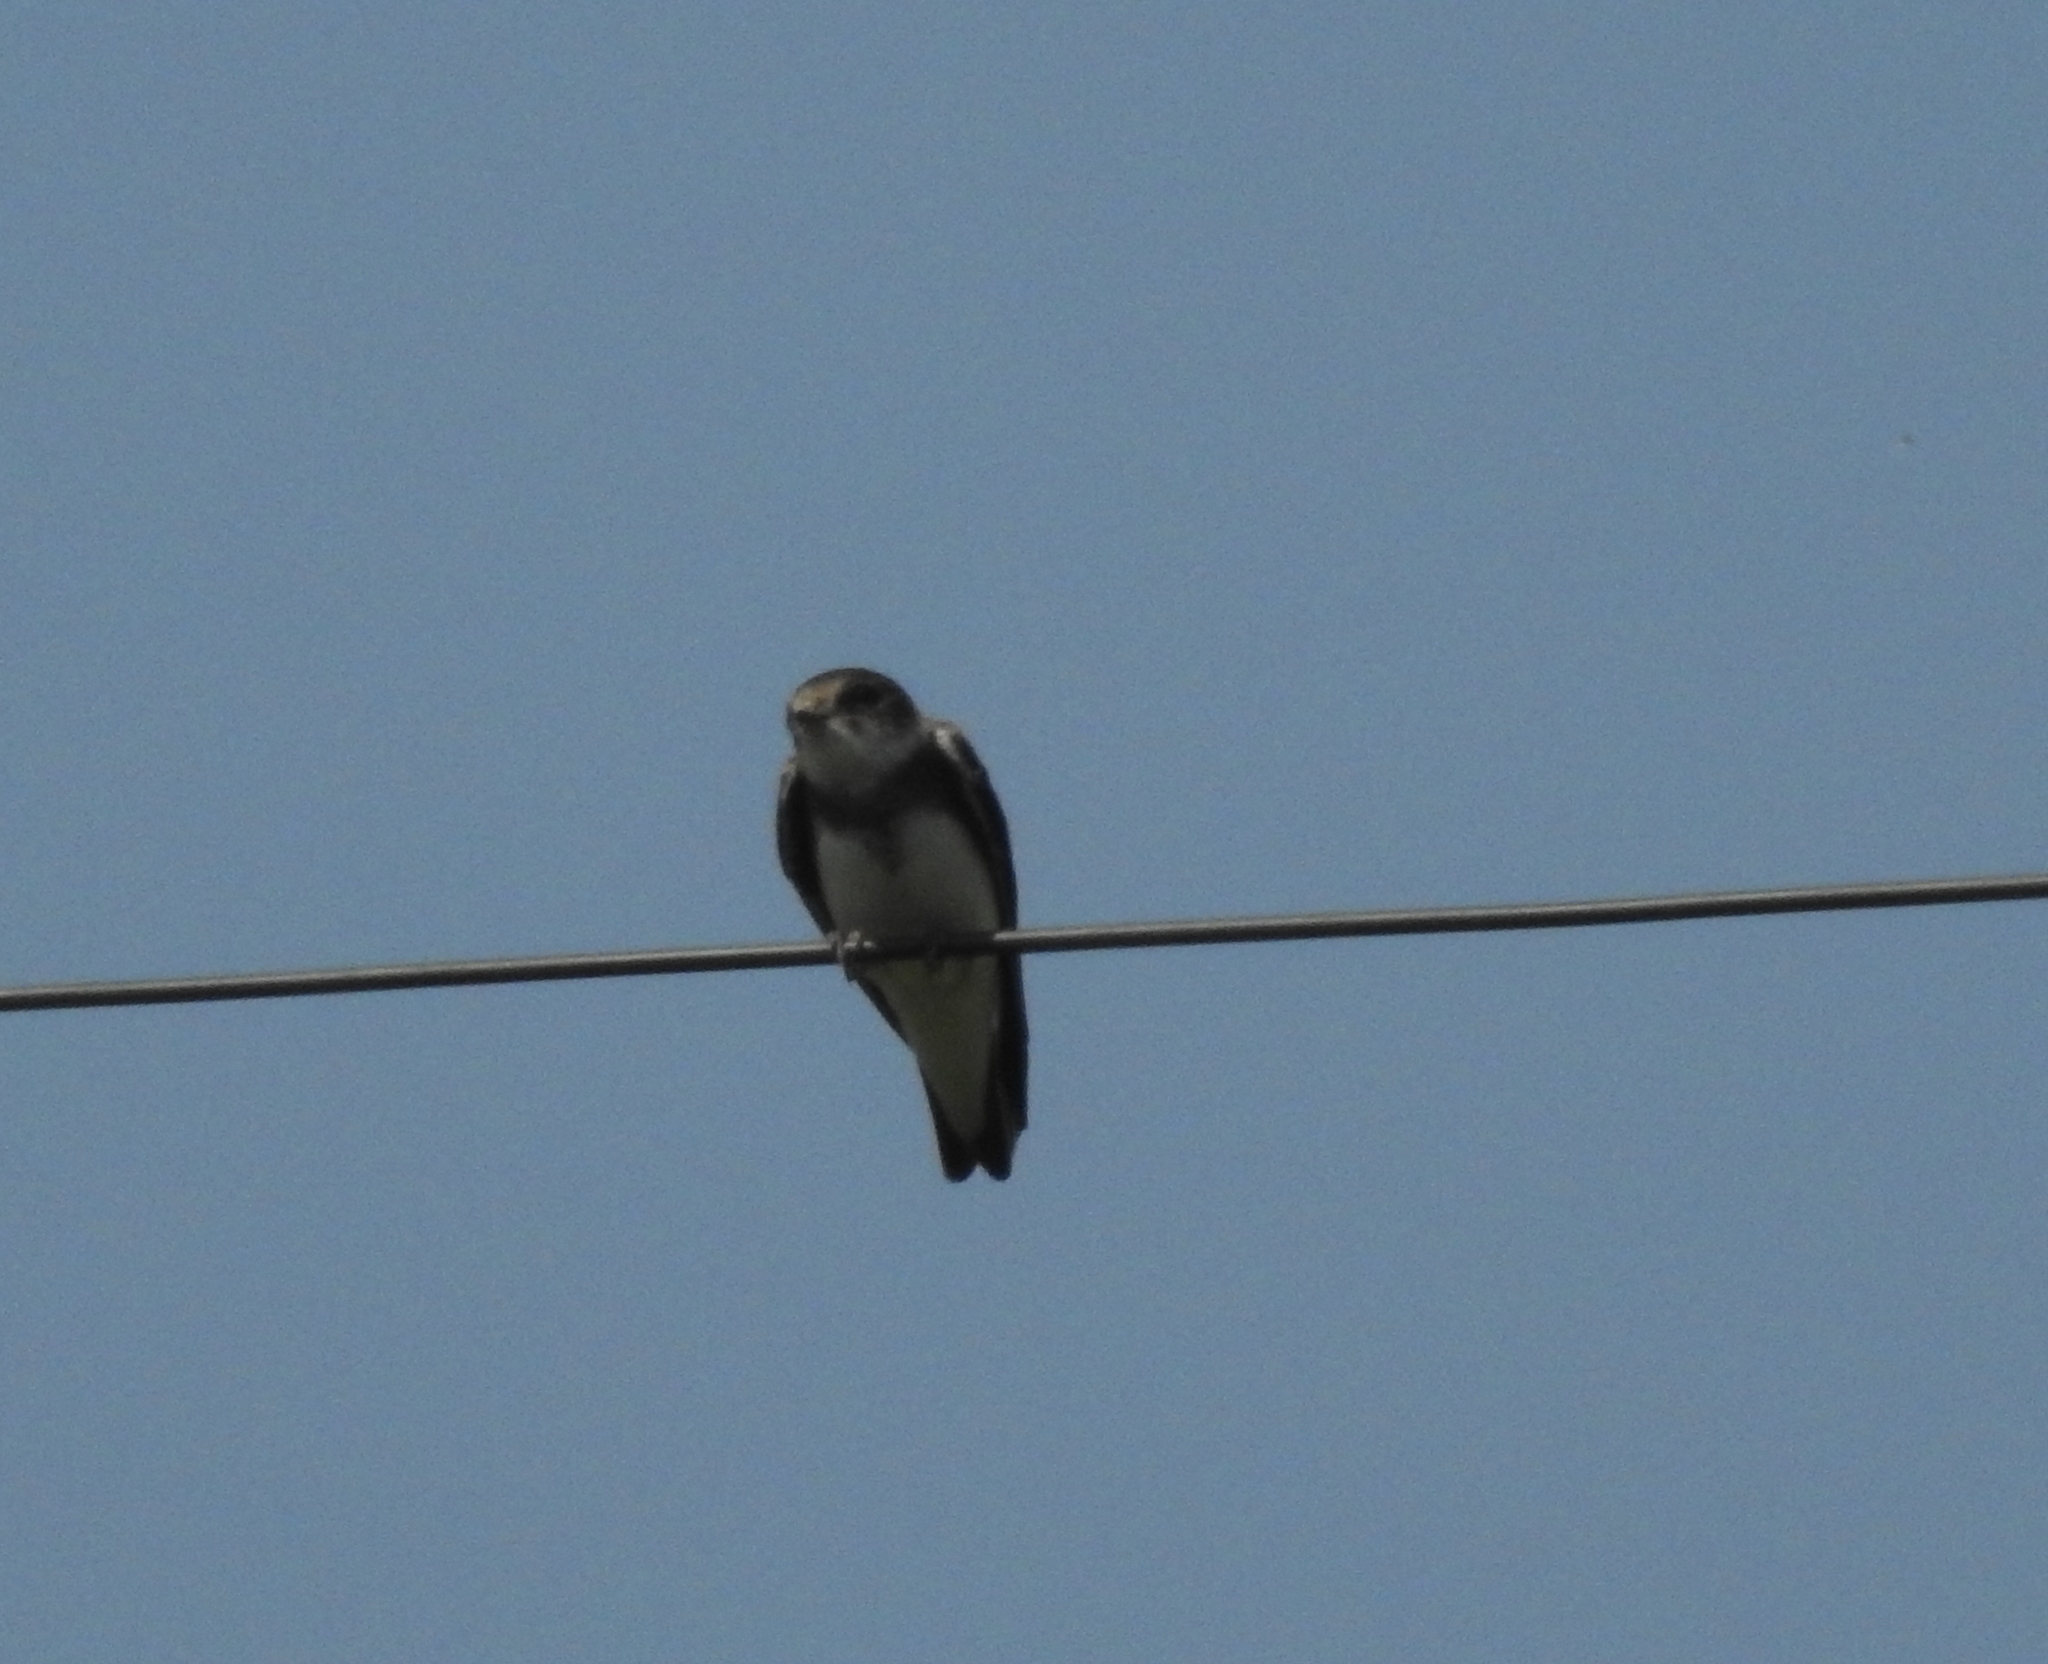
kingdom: Animalia
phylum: Chordata
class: Aves
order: Passeriformes
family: Hirundinidae
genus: Riparia
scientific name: Riparia riparia
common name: Sand martin
